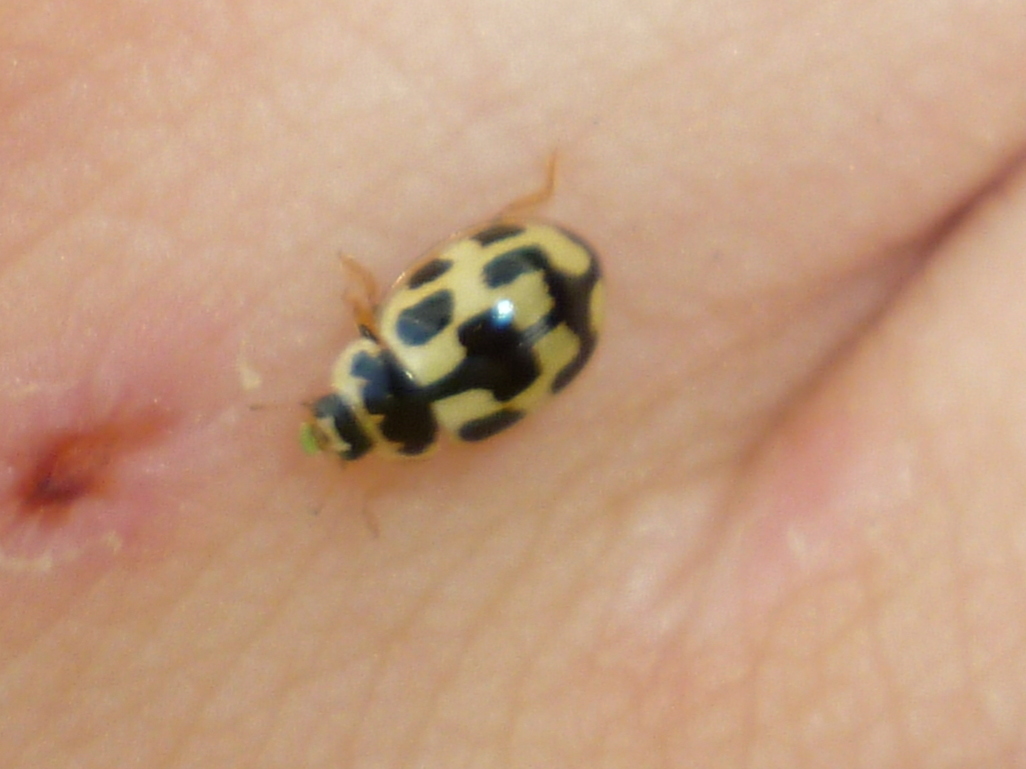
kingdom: Animalia
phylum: Arthropoda
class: Insecta
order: Coleoptera
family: Coccinellidae
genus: Propylaea
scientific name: Propylaea quatuordecimpunctata
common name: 14-spotted ladybird beetle
